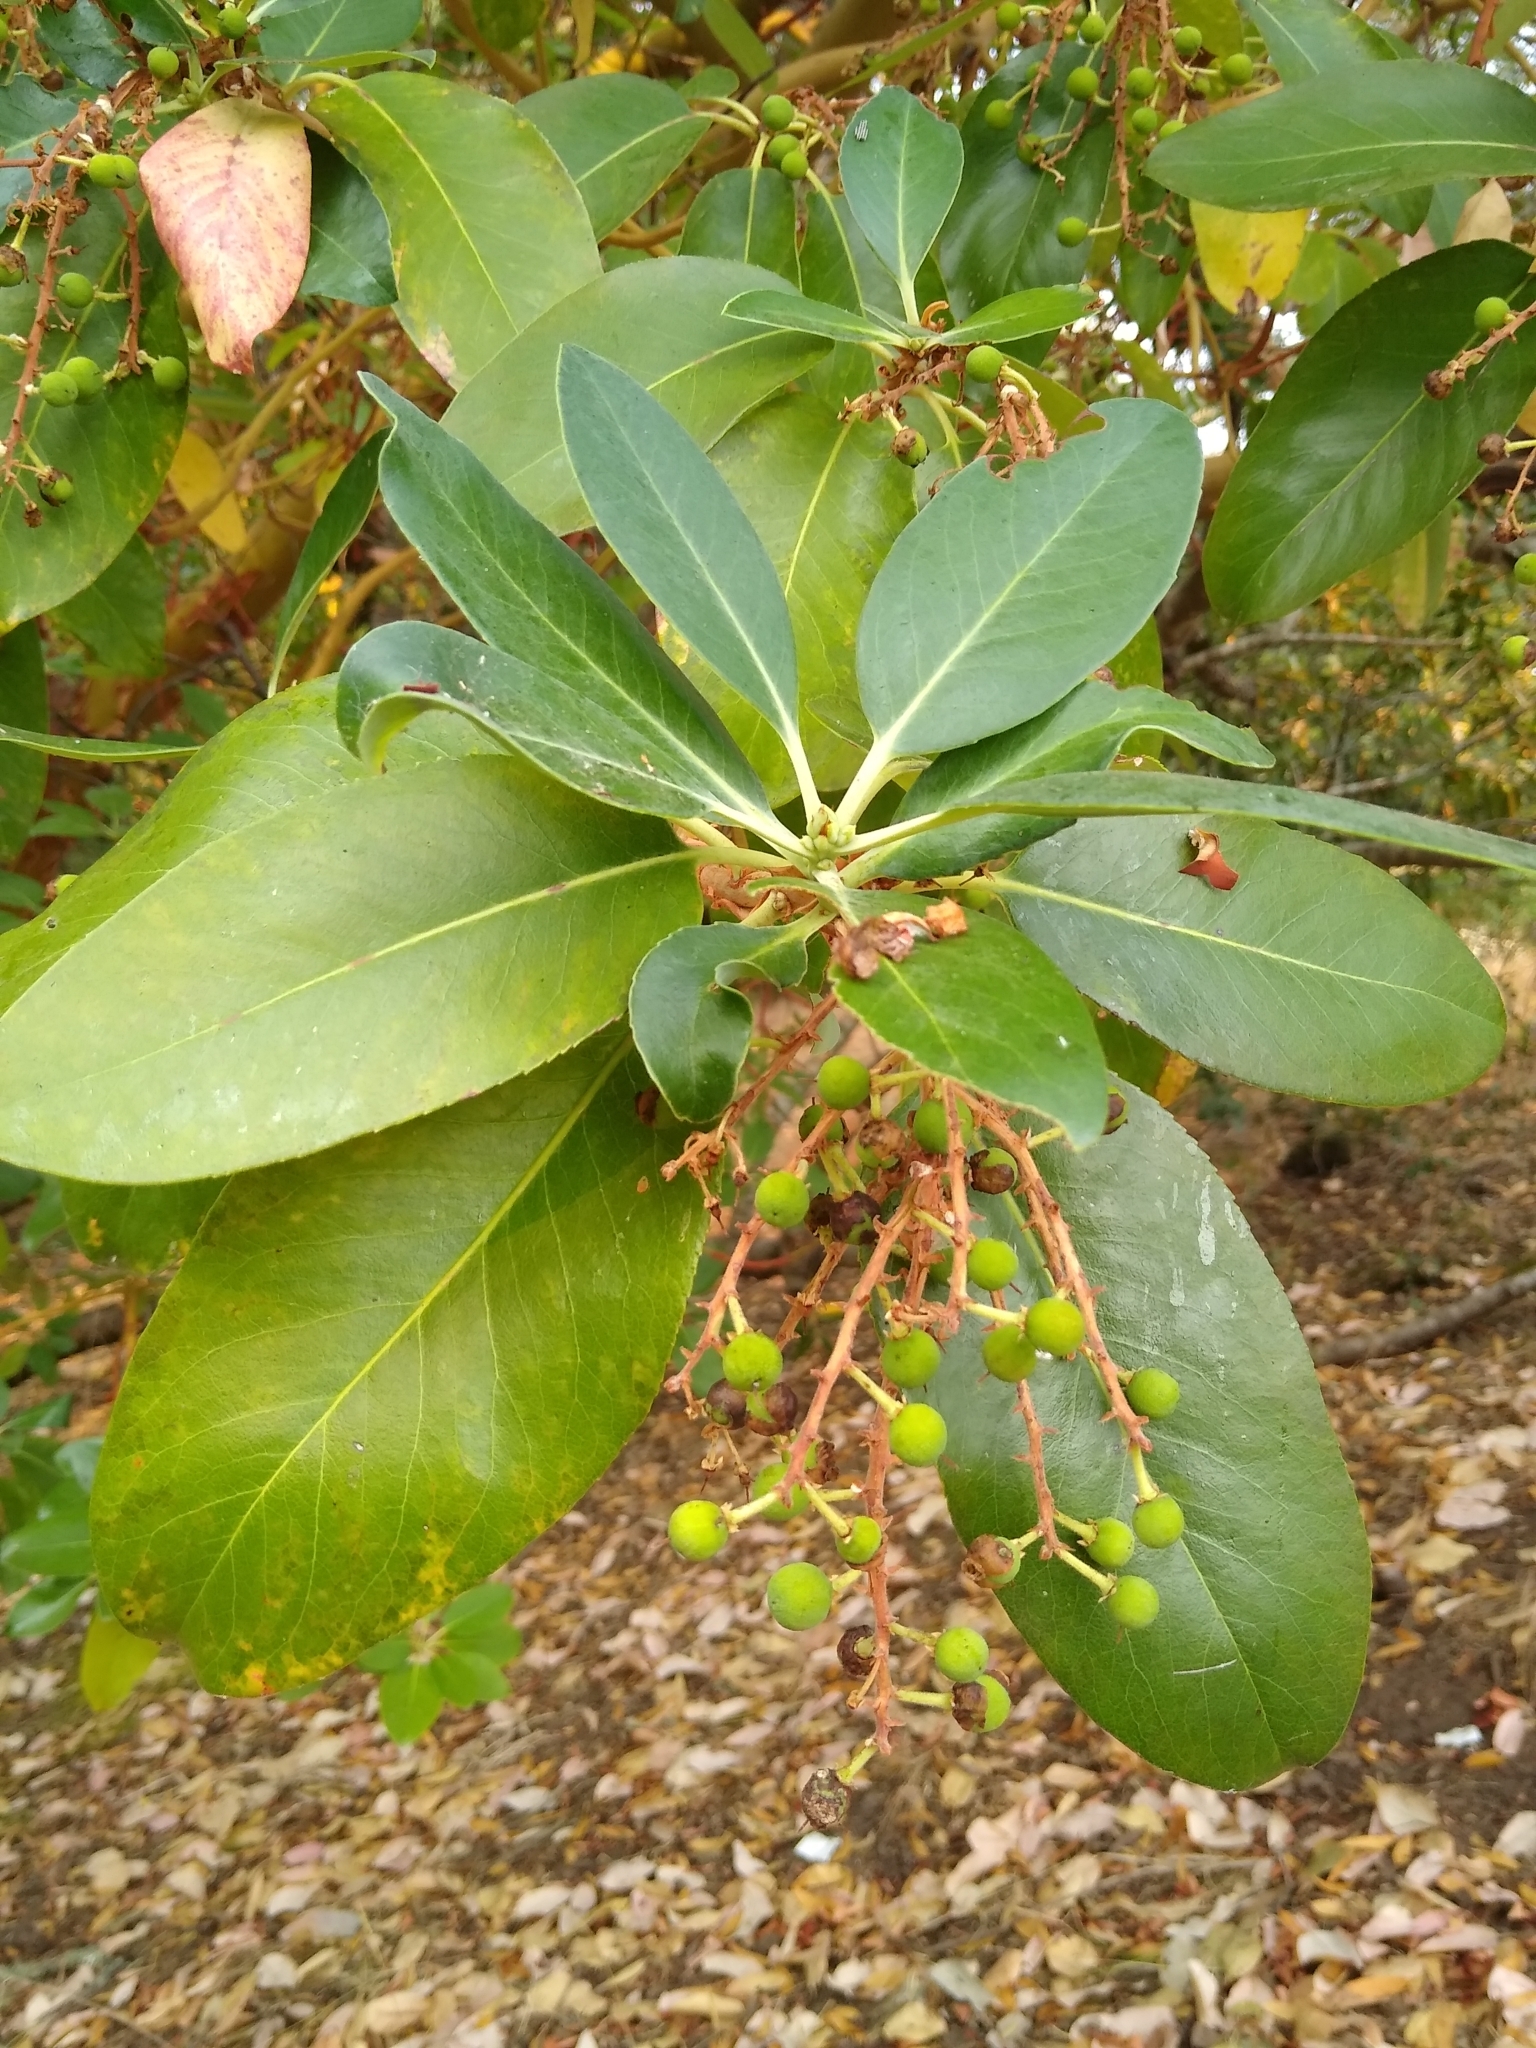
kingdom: Plantae
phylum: Tracheophyta
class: Magnoliopsida
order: Ericales
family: Ericaceae
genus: Arbutus
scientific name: Arbutus menziesii
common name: Pacific madrone
